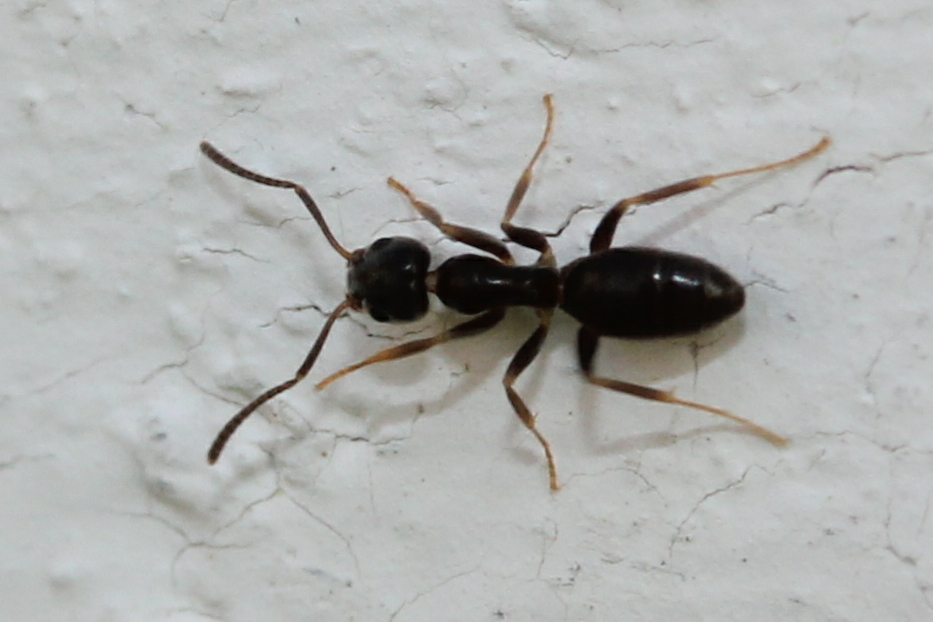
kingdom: Animalia
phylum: Arthropoda
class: Insecta
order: Hymenoptera
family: Formicidae
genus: Tapinoma
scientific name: Tapinoma sessile
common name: Odorous house ant
